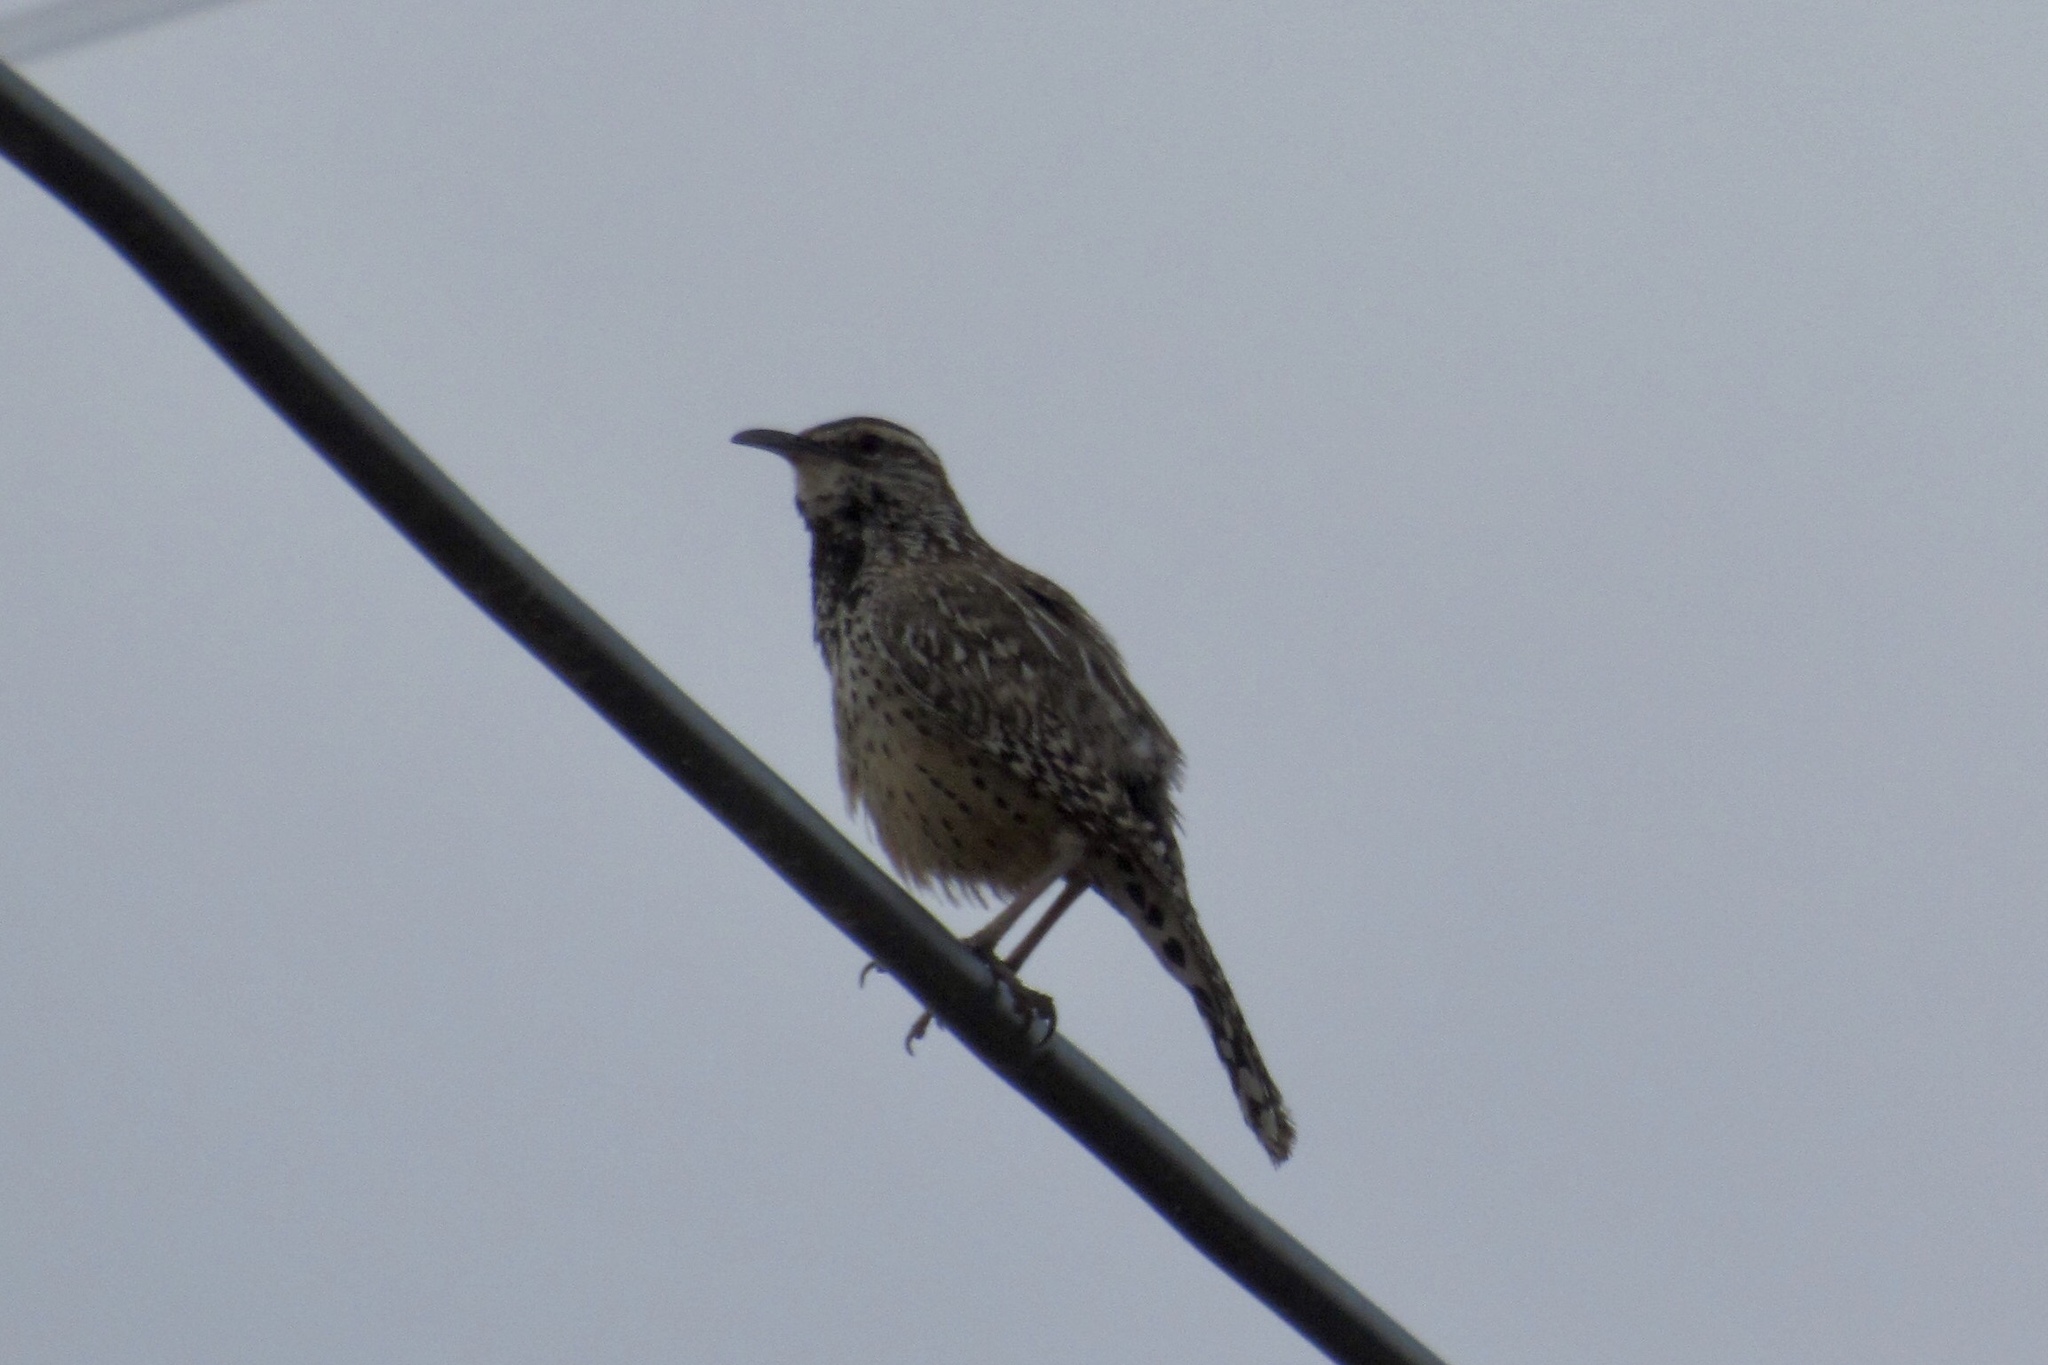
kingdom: Animalia
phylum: Chordata
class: Aves
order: Passeriformes
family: Troglodytidae
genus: Campylorhynchus
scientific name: Campylorhynchus brunneicapillus
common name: Cactus wren
